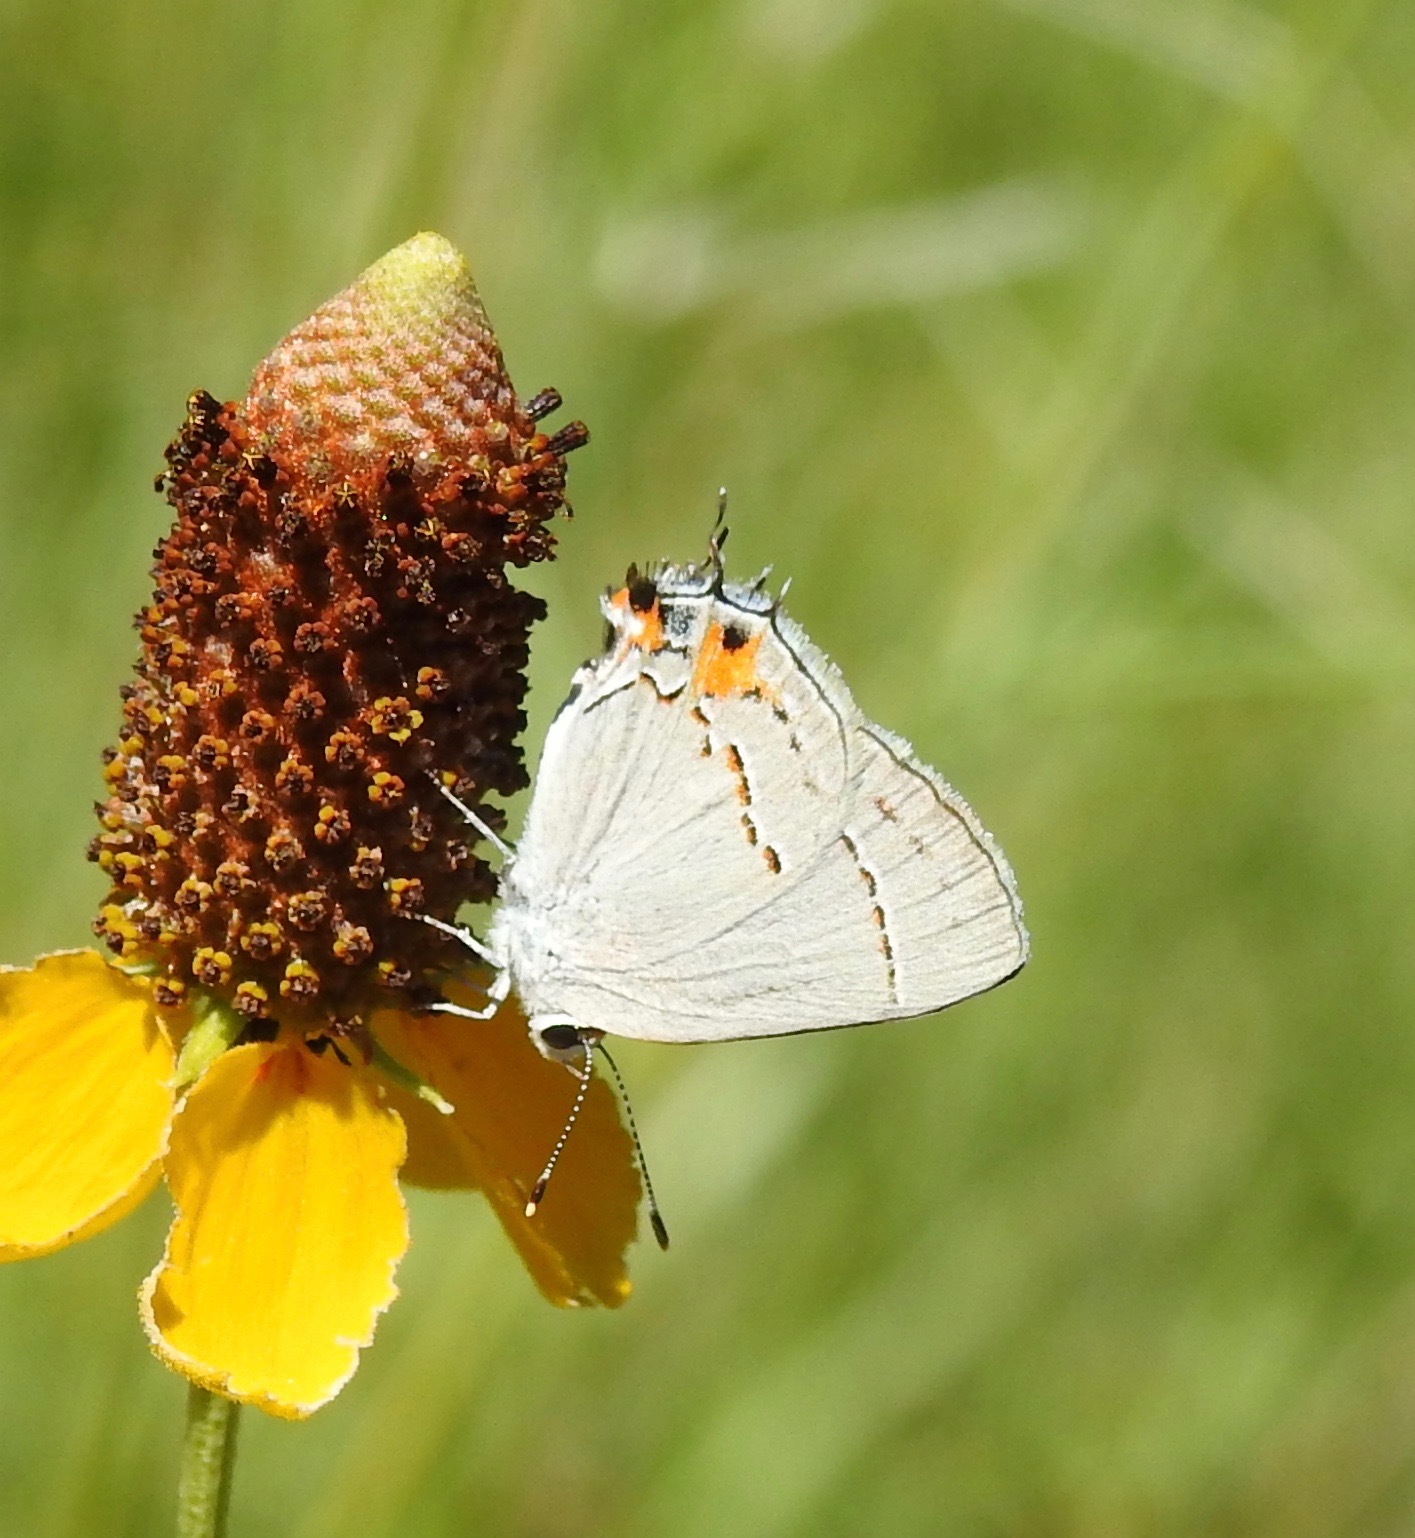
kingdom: Animalia
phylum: Arthropoda
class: Insecta
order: Lepidoptera
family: Lycaenidae
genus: Strymon
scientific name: Strymon melinus
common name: Gray hairstreak
